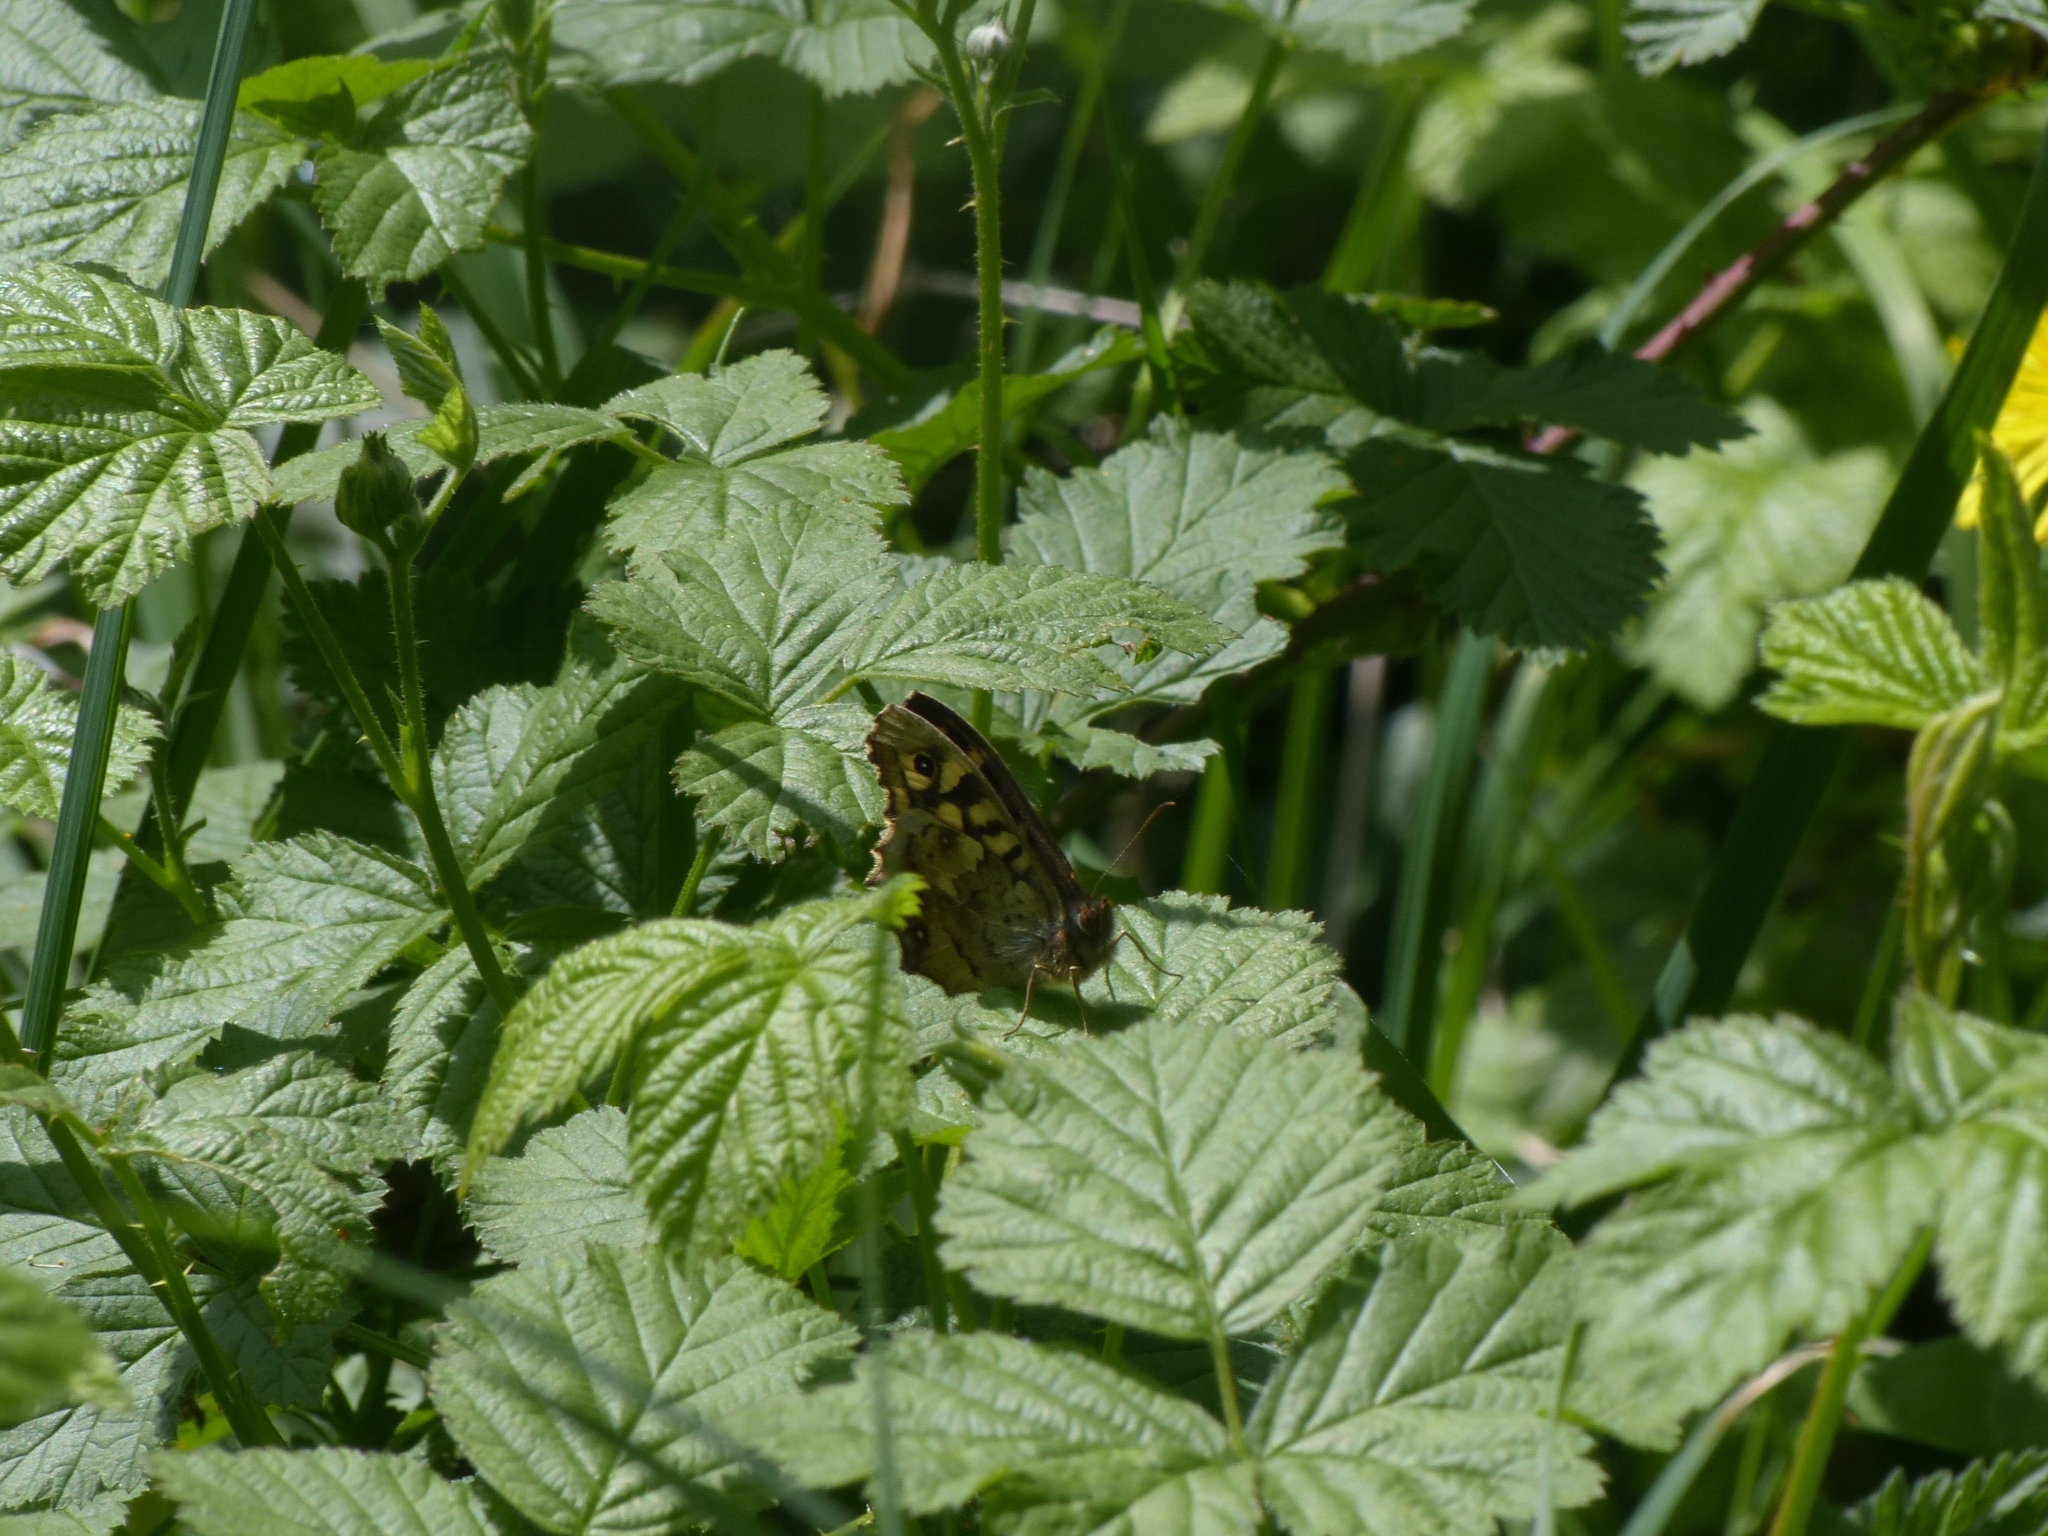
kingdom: Animalia
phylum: Arthropoda
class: Insecta
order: Lepidoptera
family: Nymphalidae
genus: Pararge
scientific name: Pararge aegeria
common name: Speckled wood
